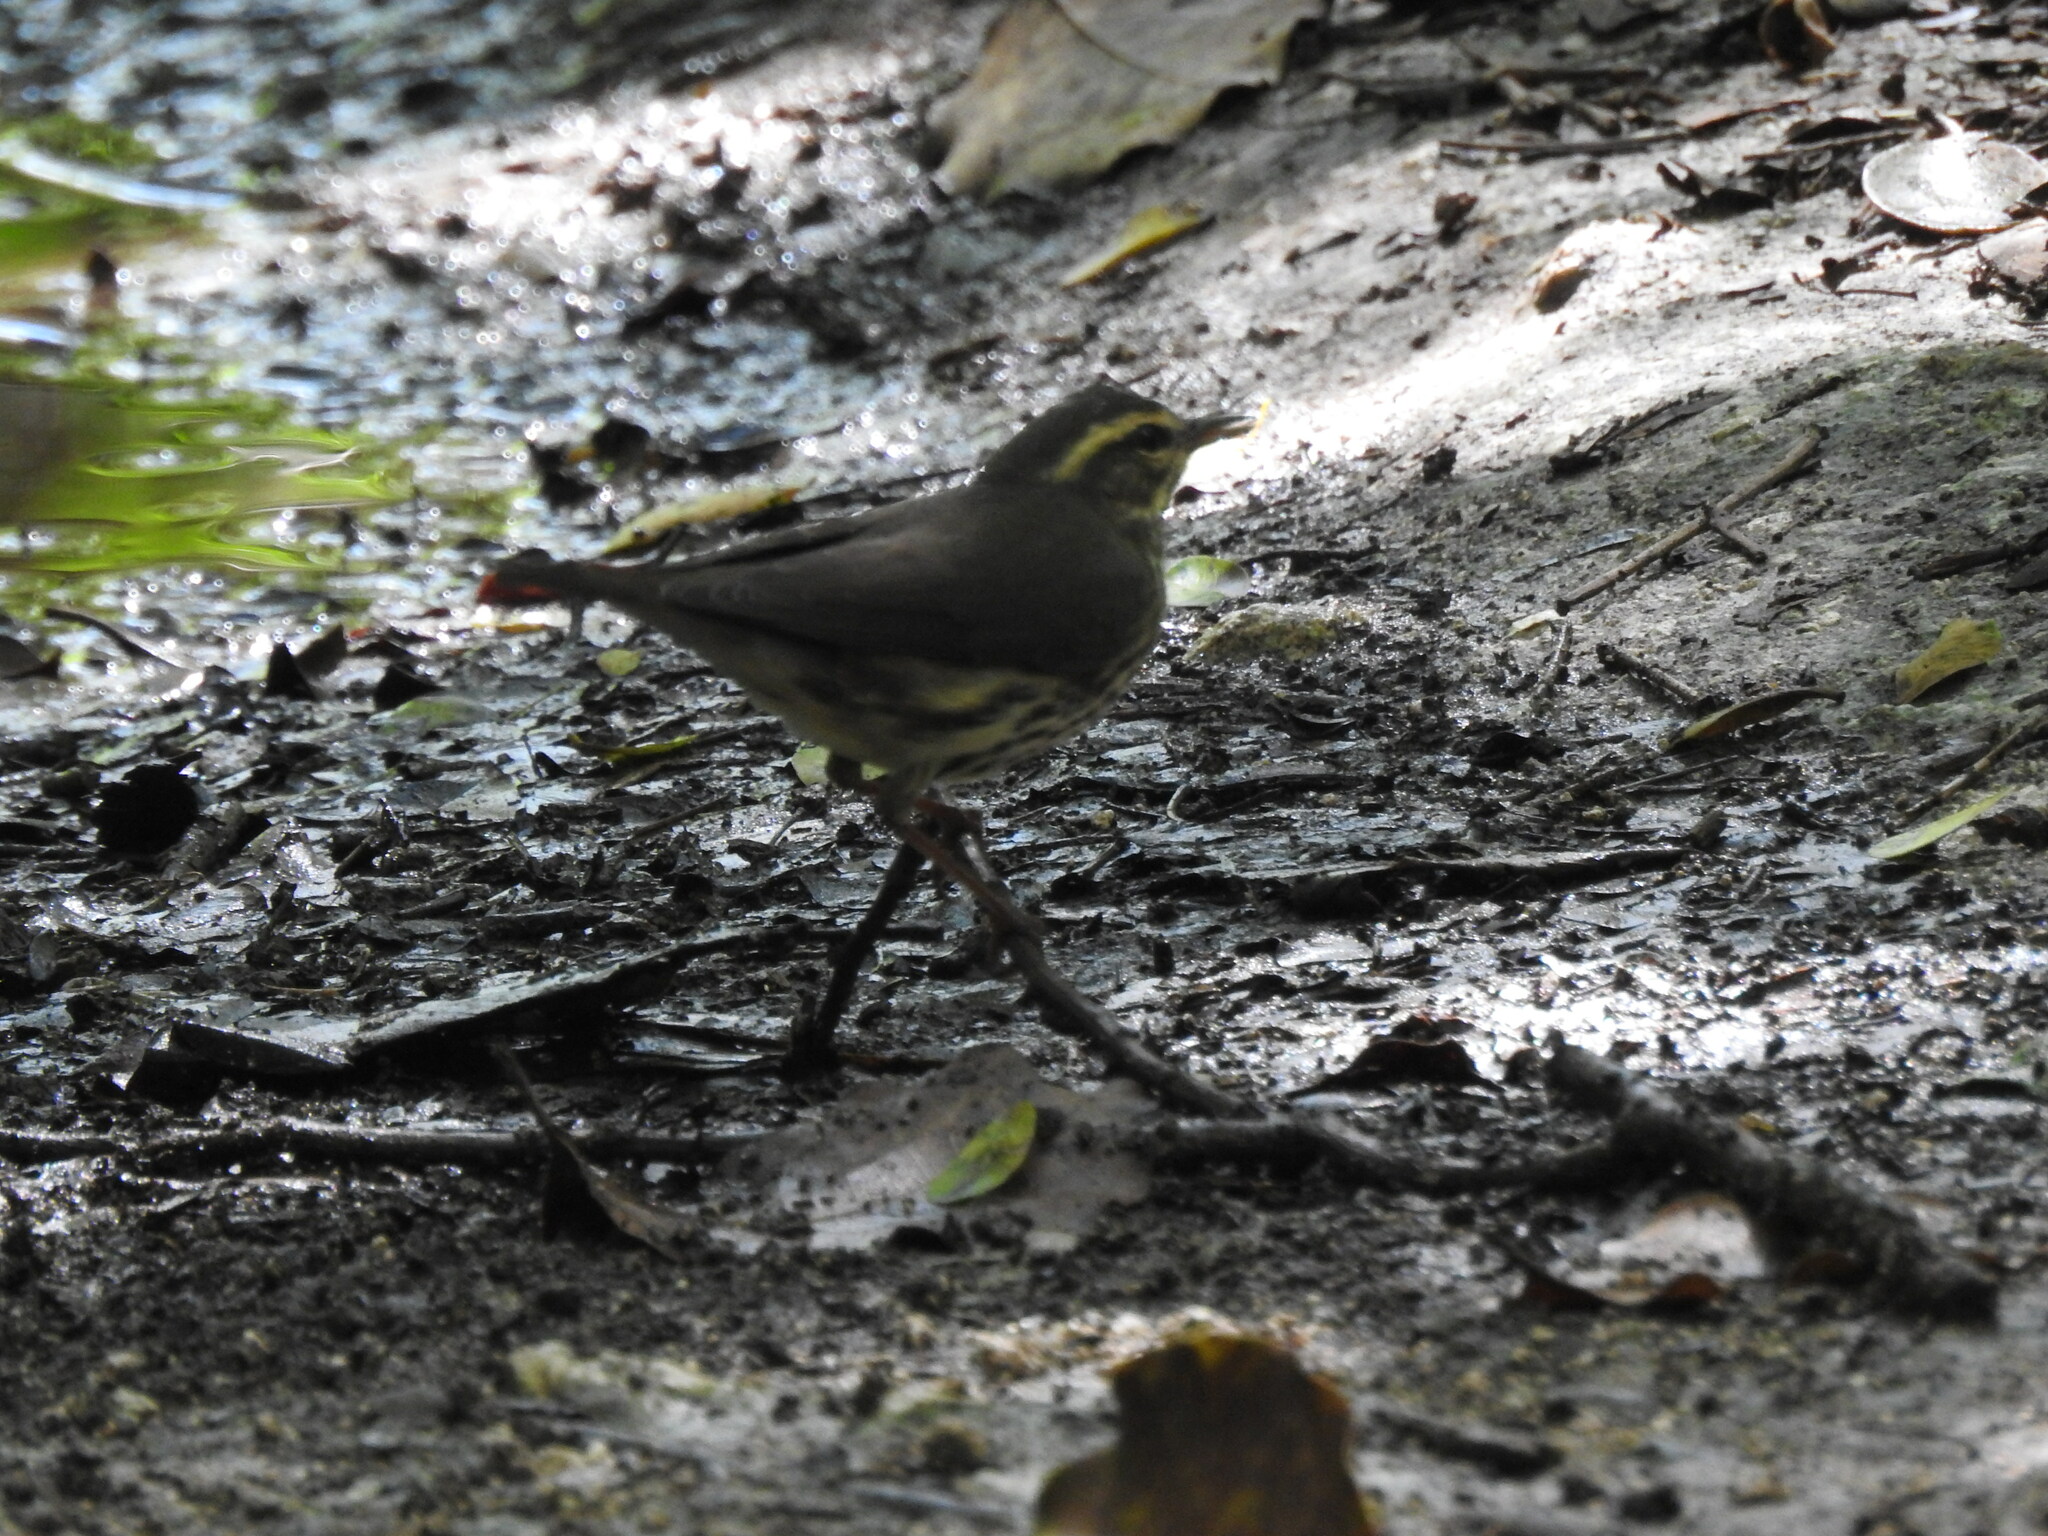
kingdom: Animalia
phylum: Chordata
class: Aves
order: Passeriformes
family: Parulidae
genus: Parkesia
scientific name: Parkesia noveboracensis
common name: Northern waterthrush
